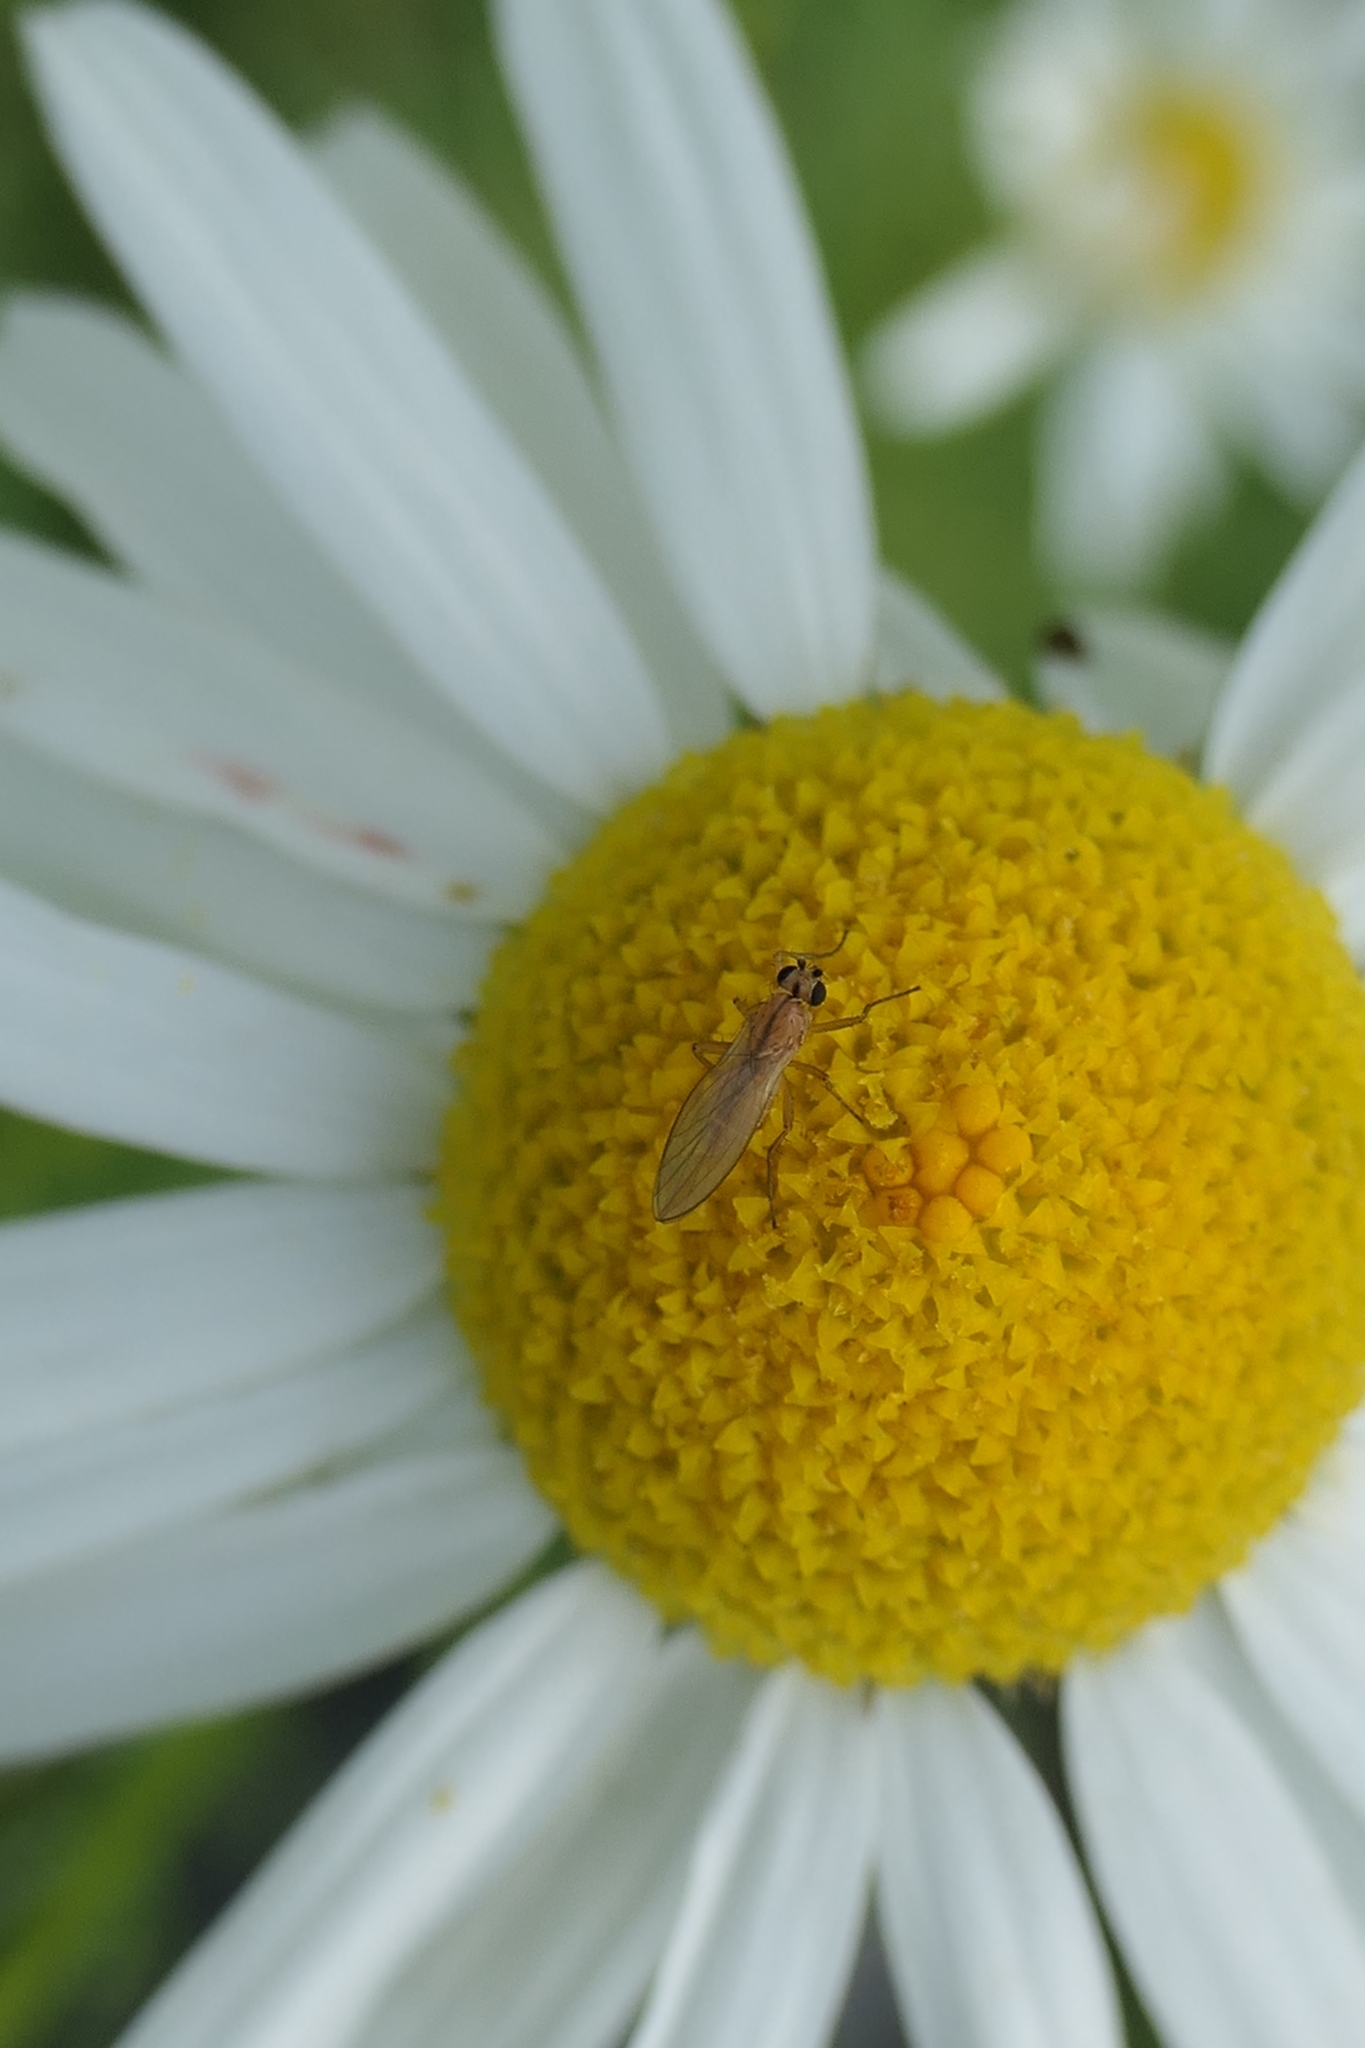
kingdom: Animalia
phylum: Arthropoda
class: Insecta
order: Diptera
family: Lonchopteridae
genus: Lonchoptera
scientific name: Lonchoptera bifurcata
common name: Spear-winged fly
